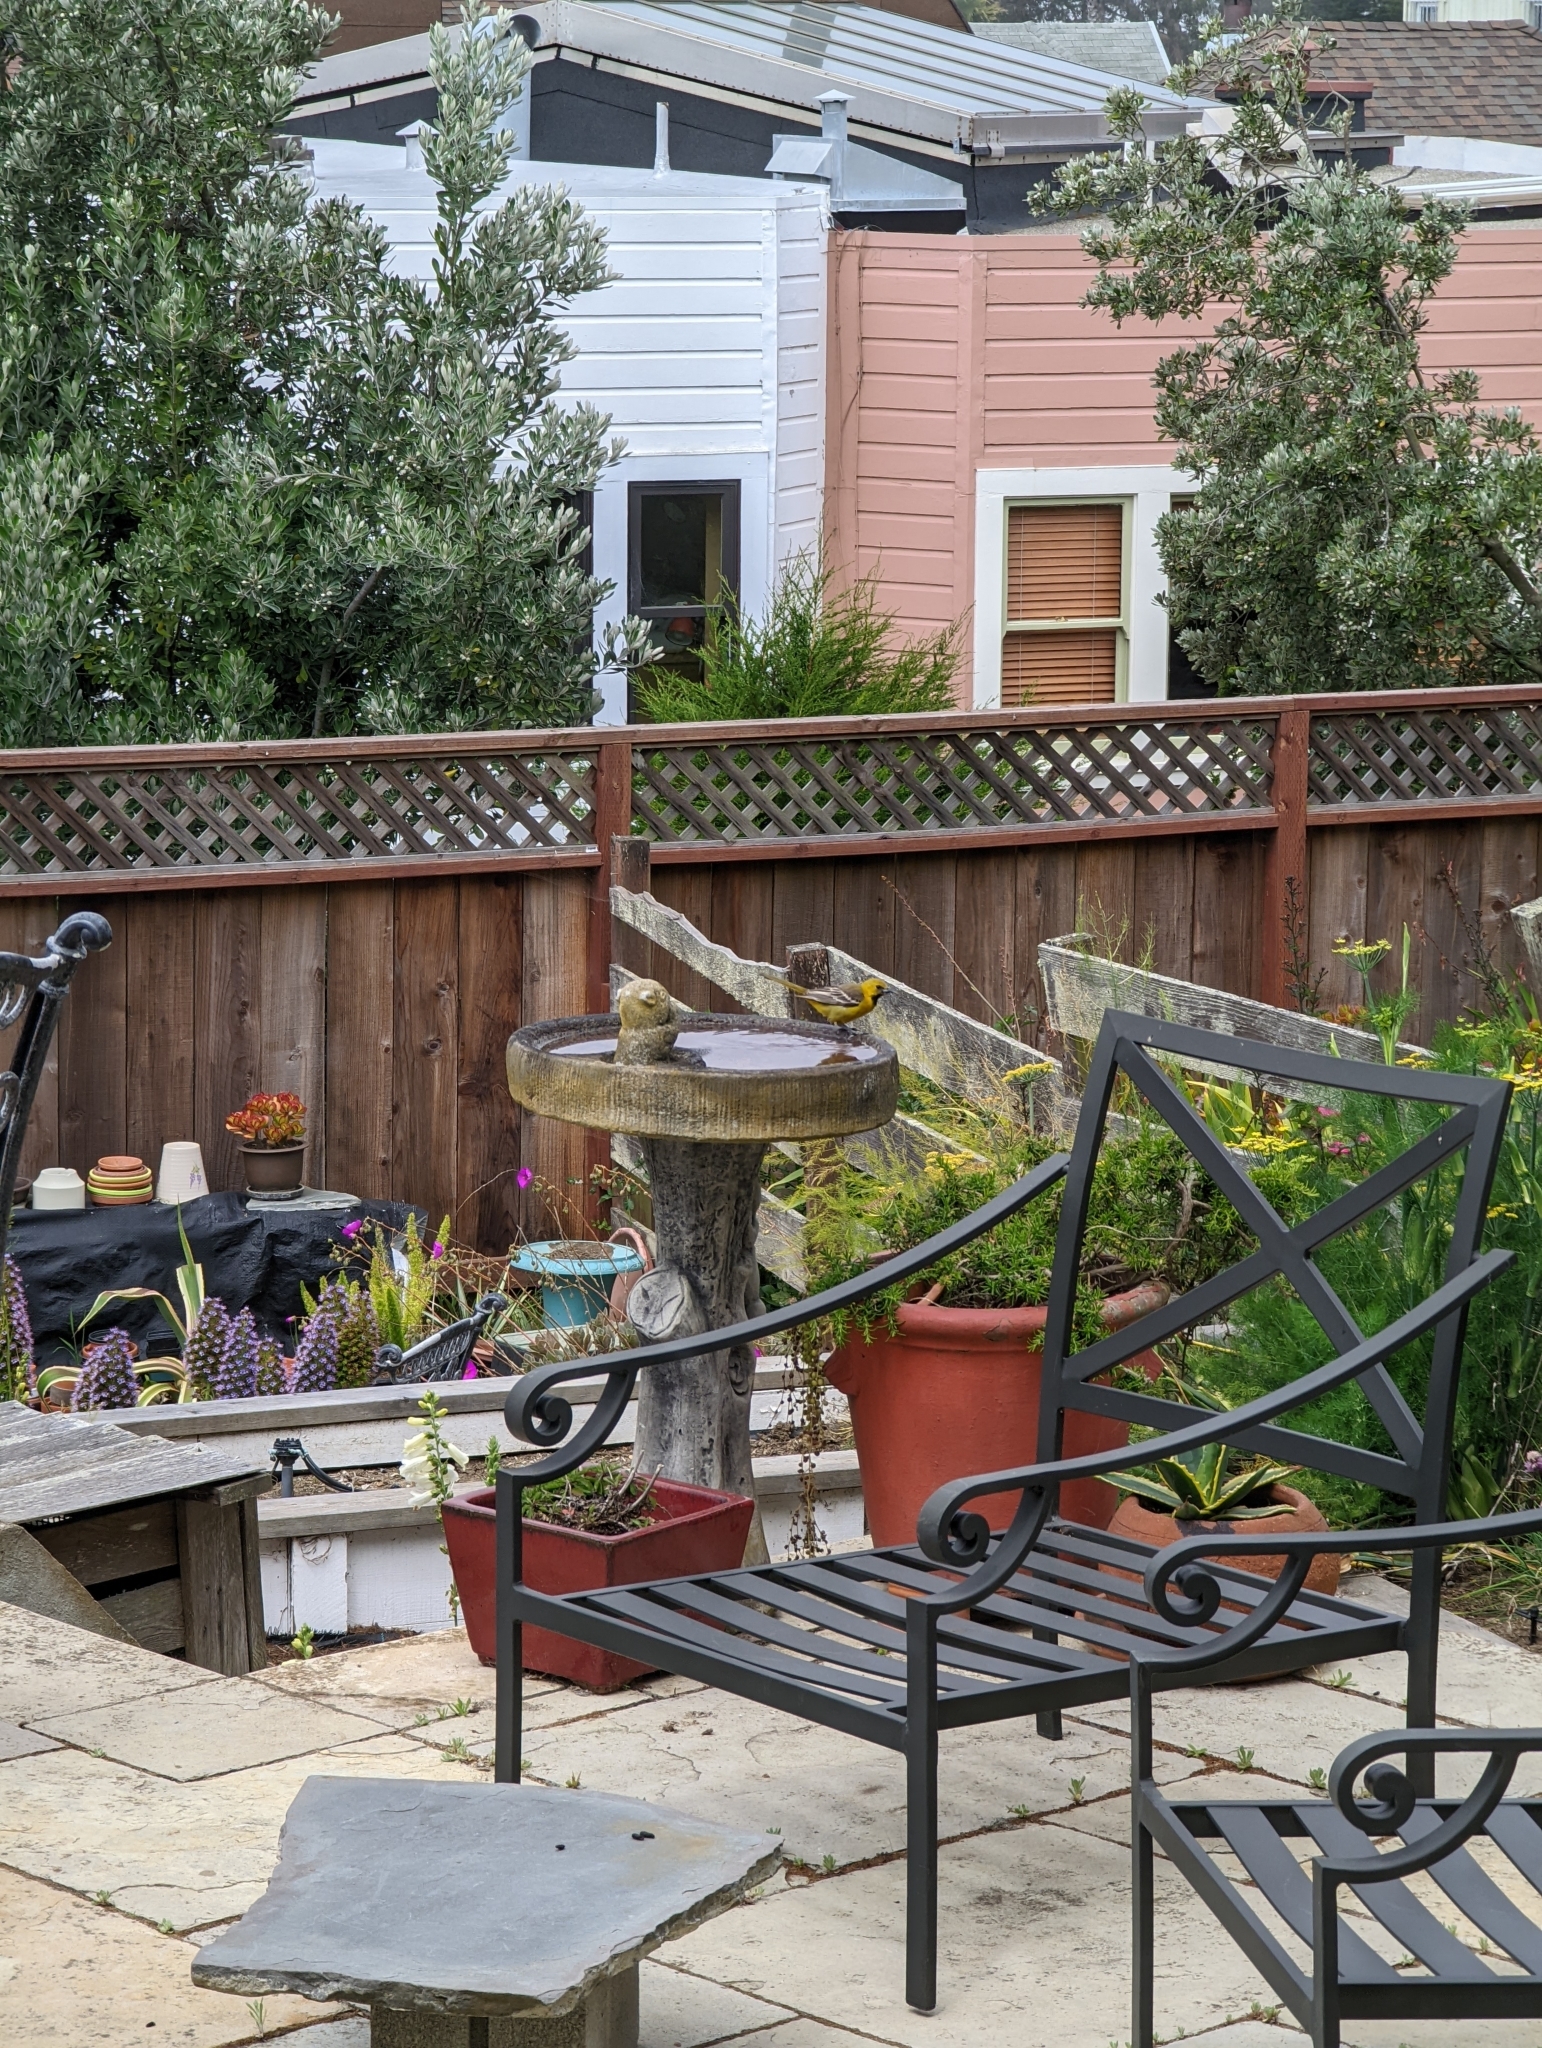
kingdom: Animalia
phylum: Chordata
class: Aves
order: Passeriformes
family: Icteridae
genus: Icterus
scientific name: Icterus cucullatus
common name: Hooded oriole
